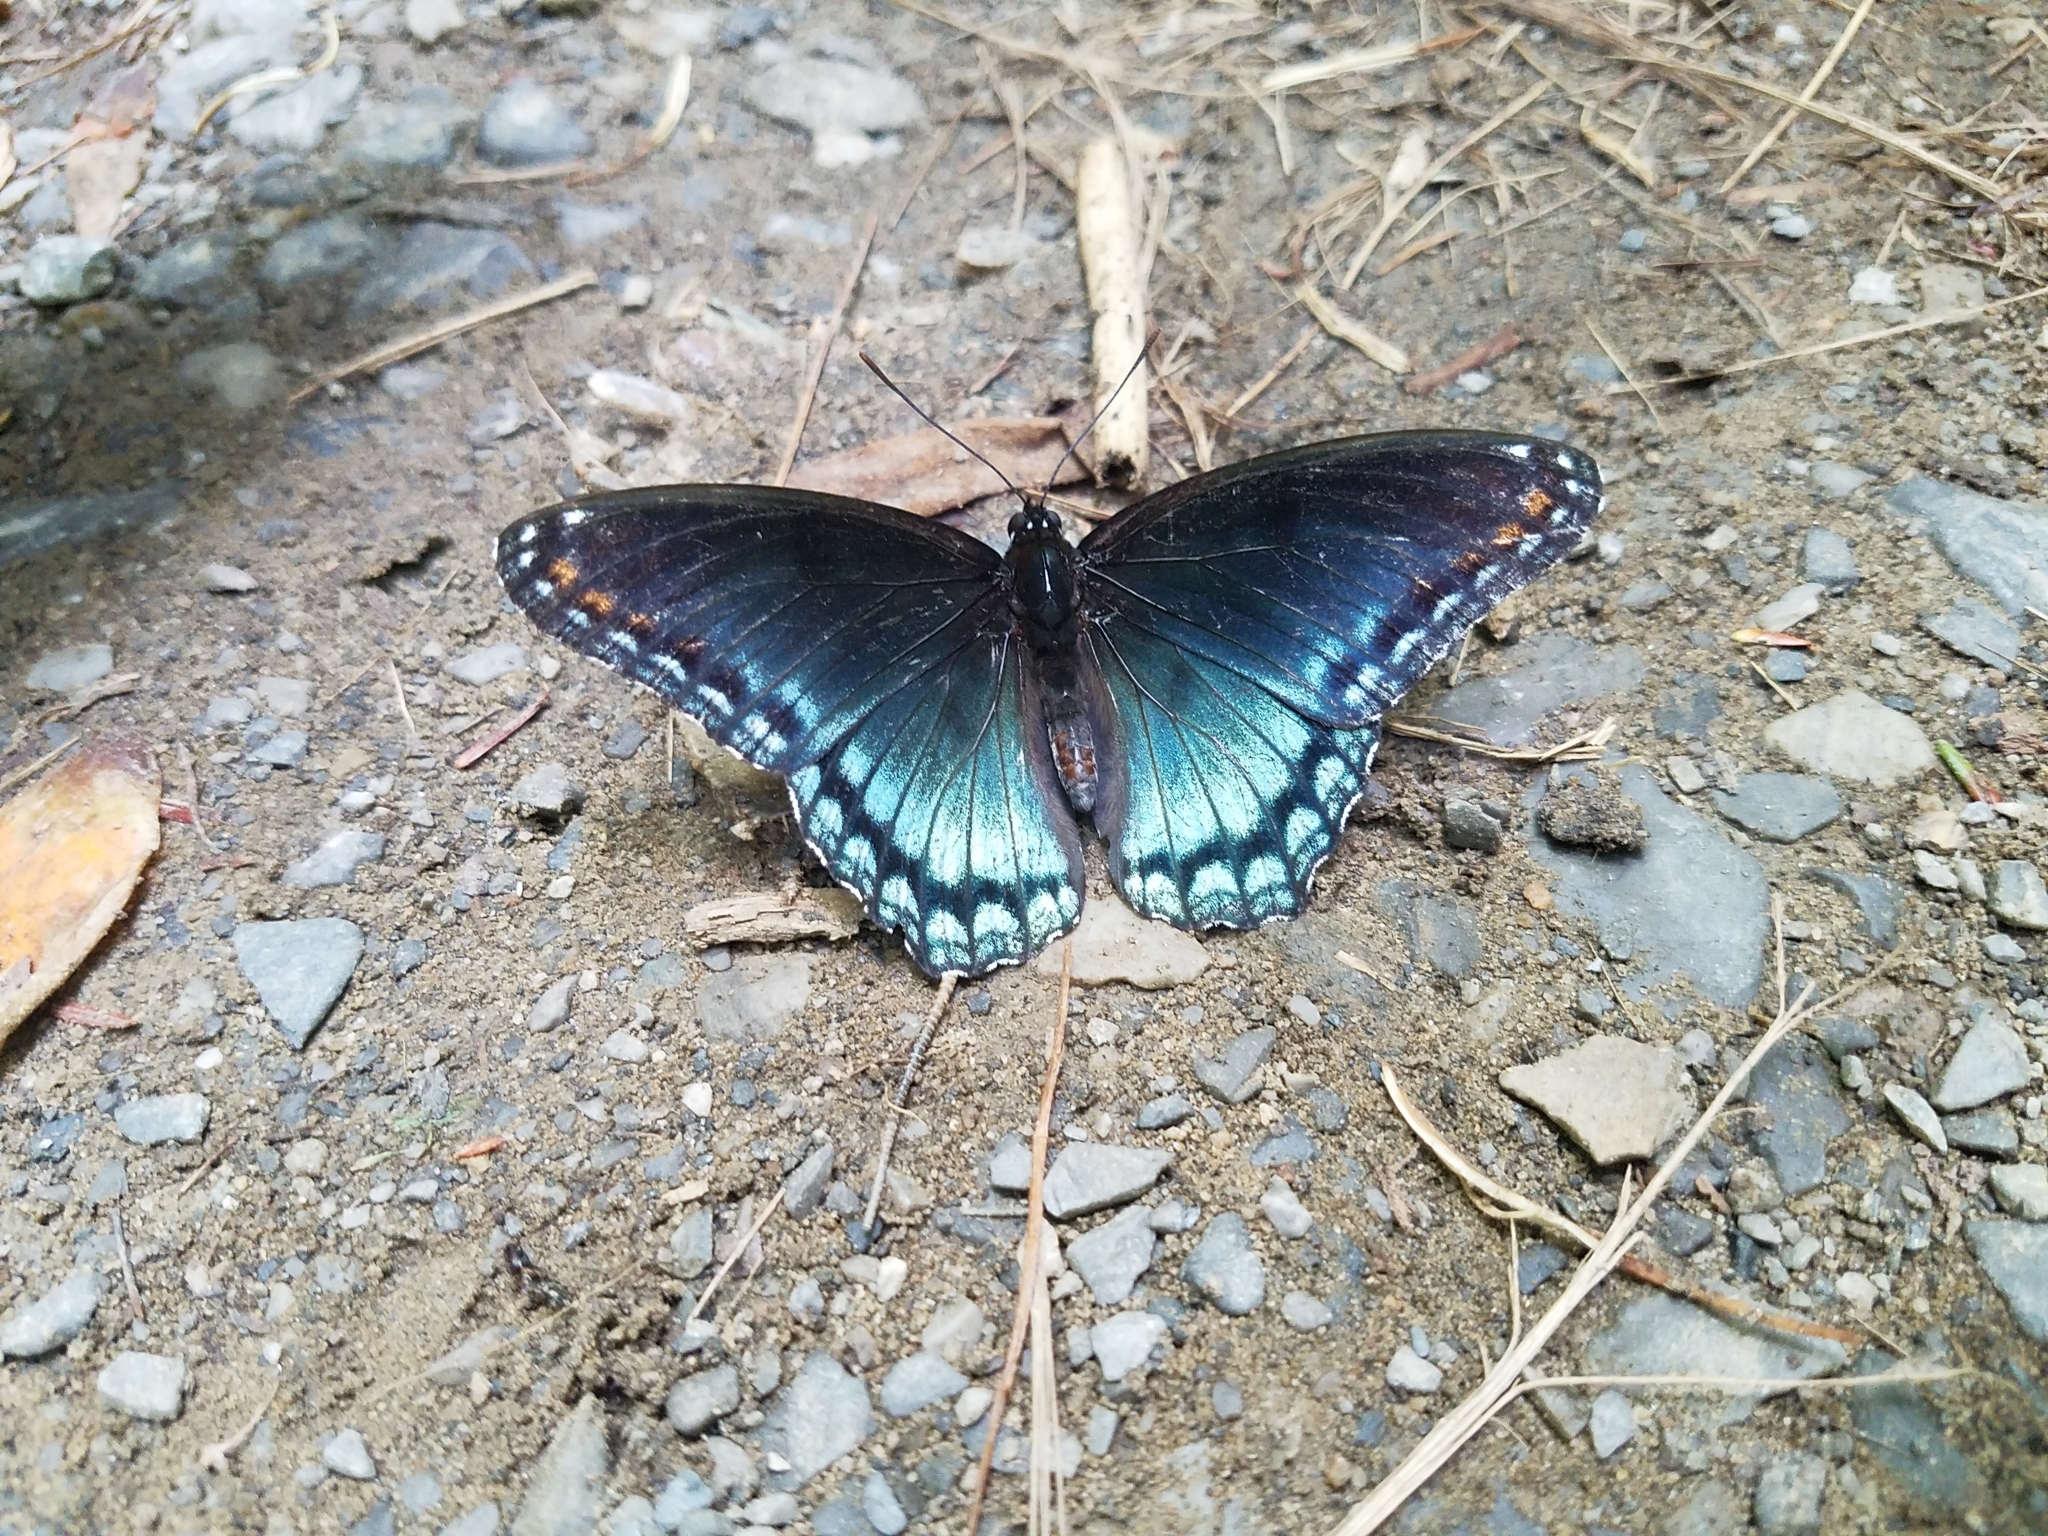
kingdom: Animalia
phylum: Arthropoda
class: Insecta
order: Lepidoptera
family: Nymphalidae
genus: Limenitis
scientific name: Limenitis astyanax
